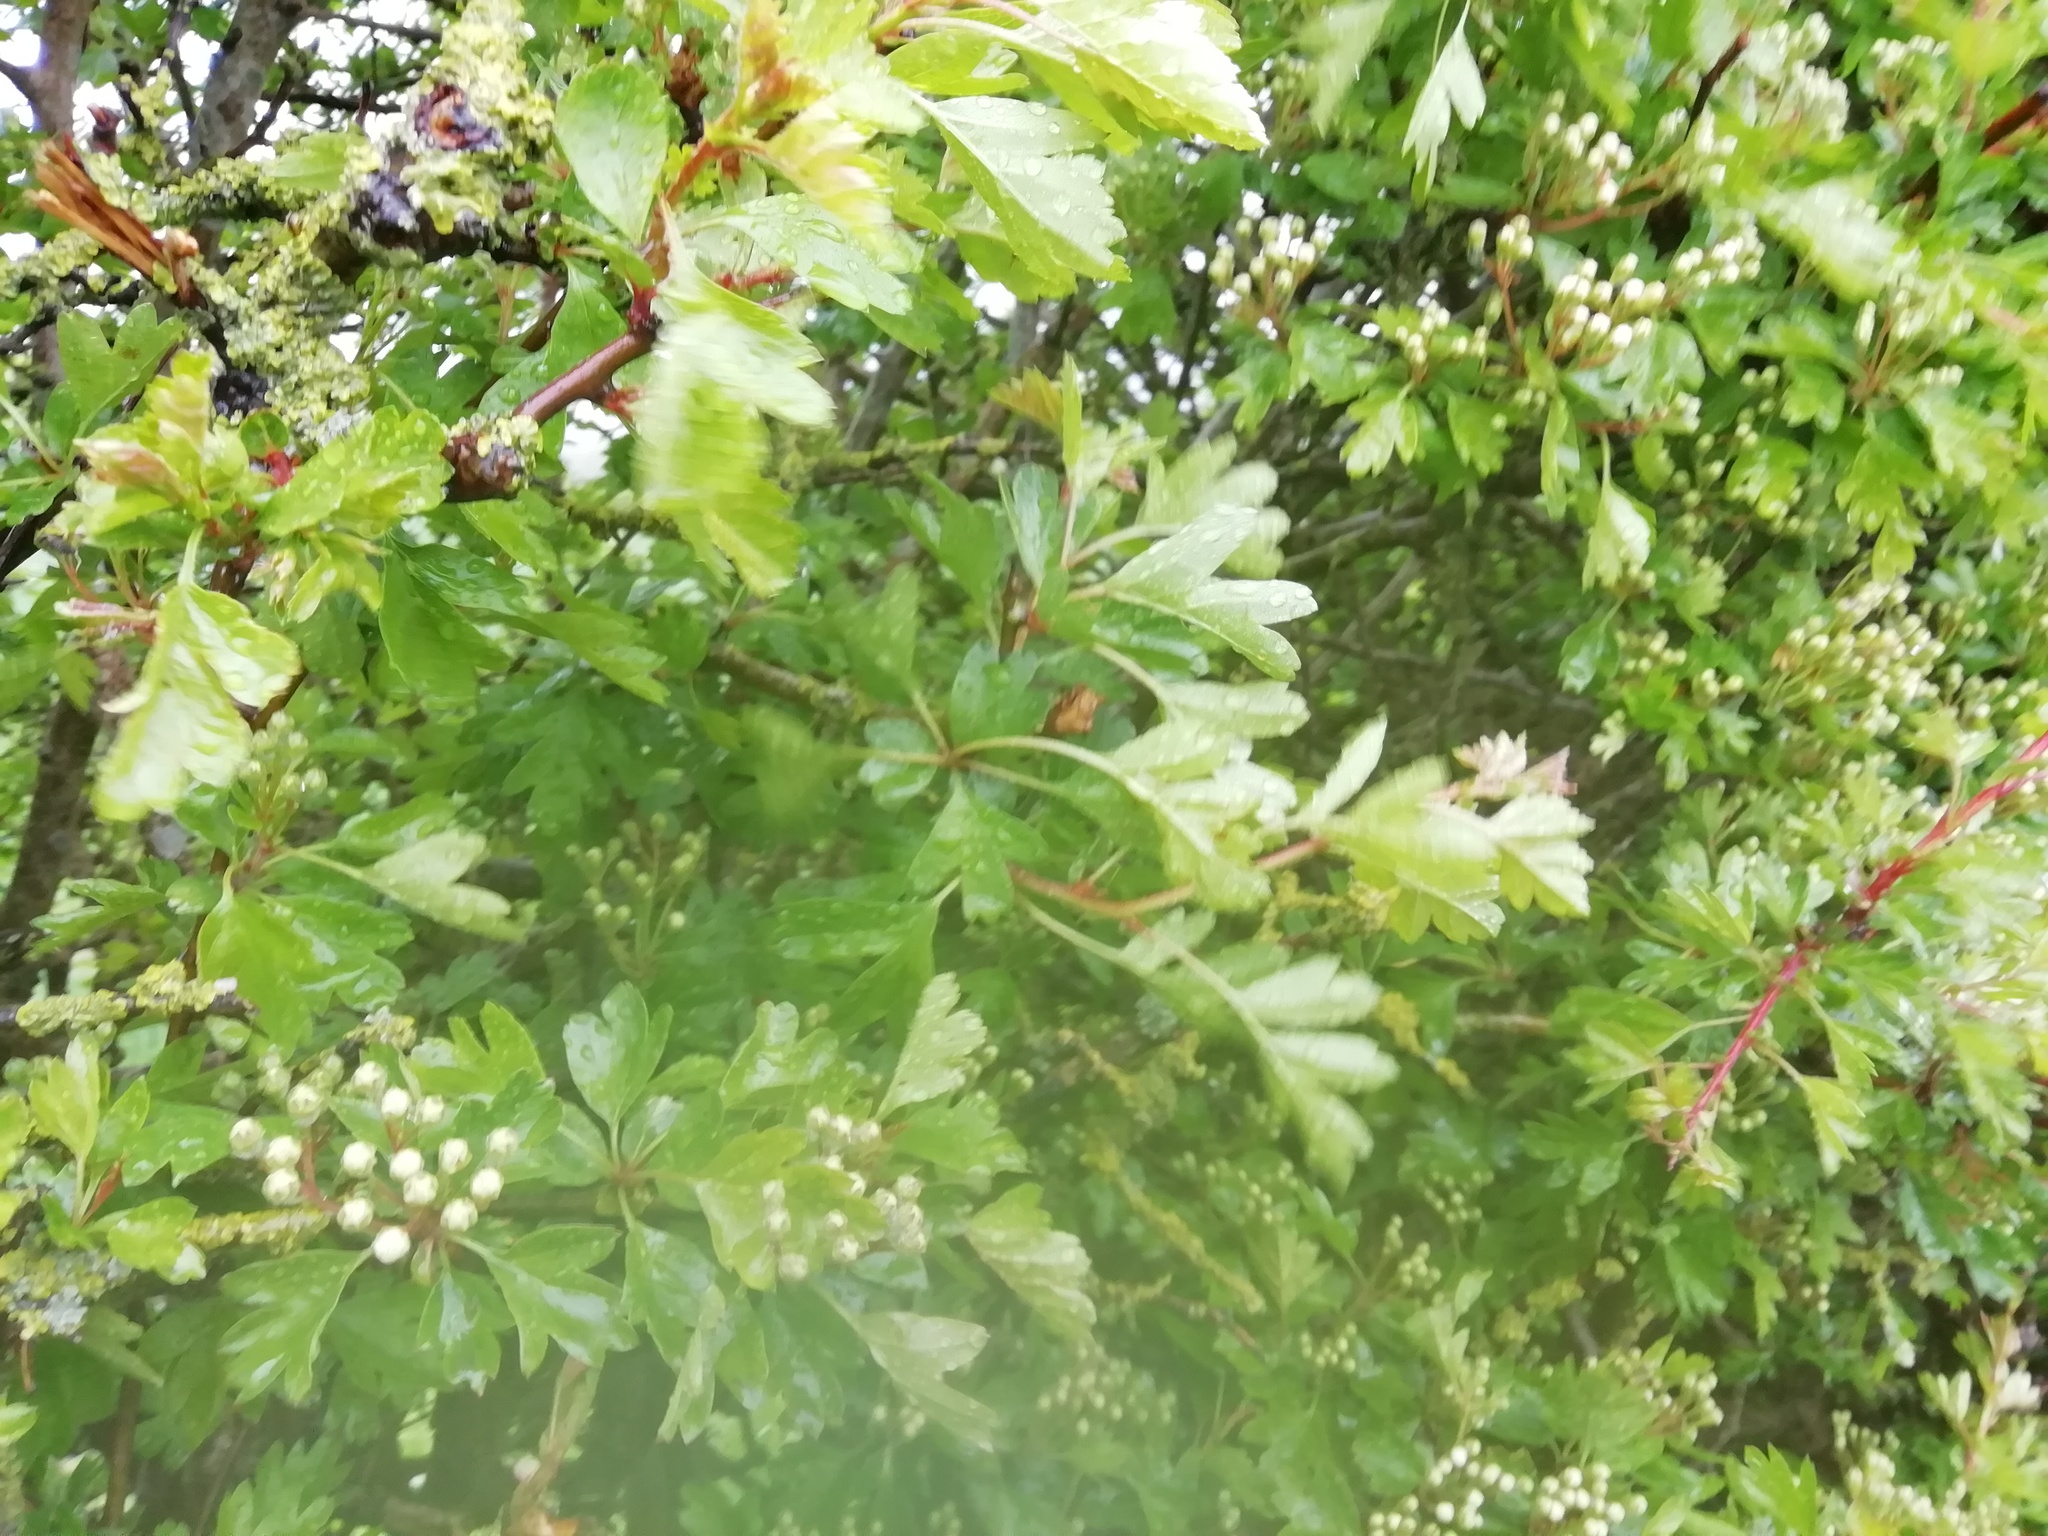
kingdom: Plantae
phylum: Tracheophyta
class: Magnoliopsida
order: Rosales
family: Rosaceae
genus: Crataegus
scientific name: Crataegus monogyna
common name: Hawthorn
